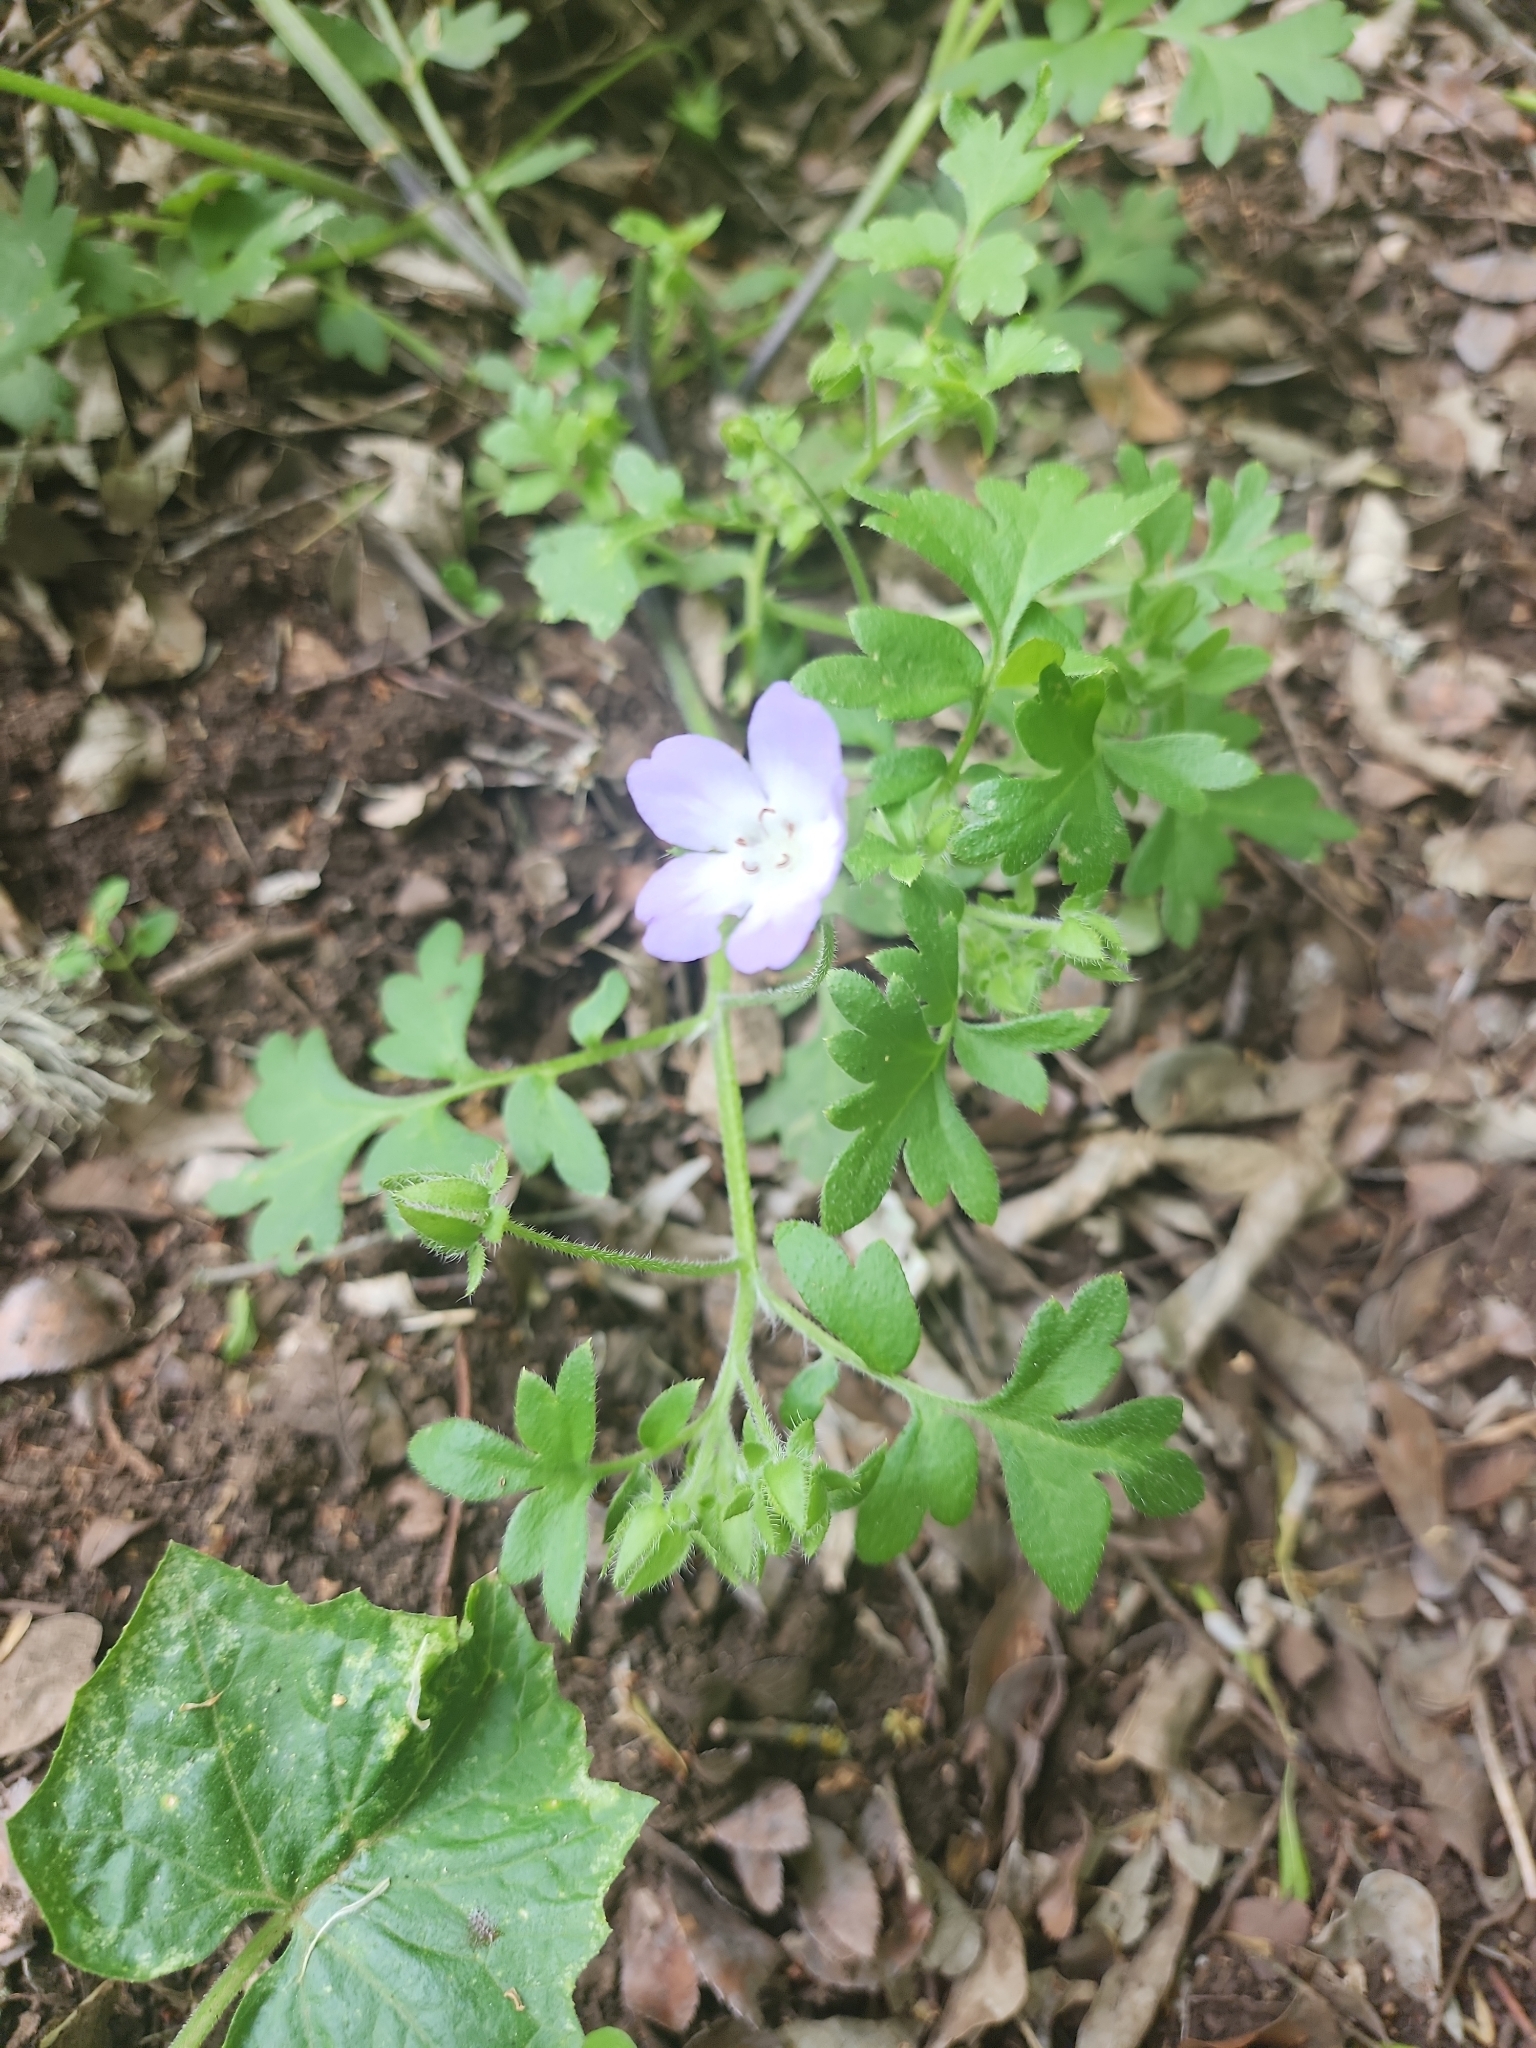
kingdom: Plantae
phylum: Tracheophyta
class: Magnoliopsida
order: Boraginales
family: Hydrophyllaceae
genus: Nemophila
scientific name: Nemophila phacelioides
